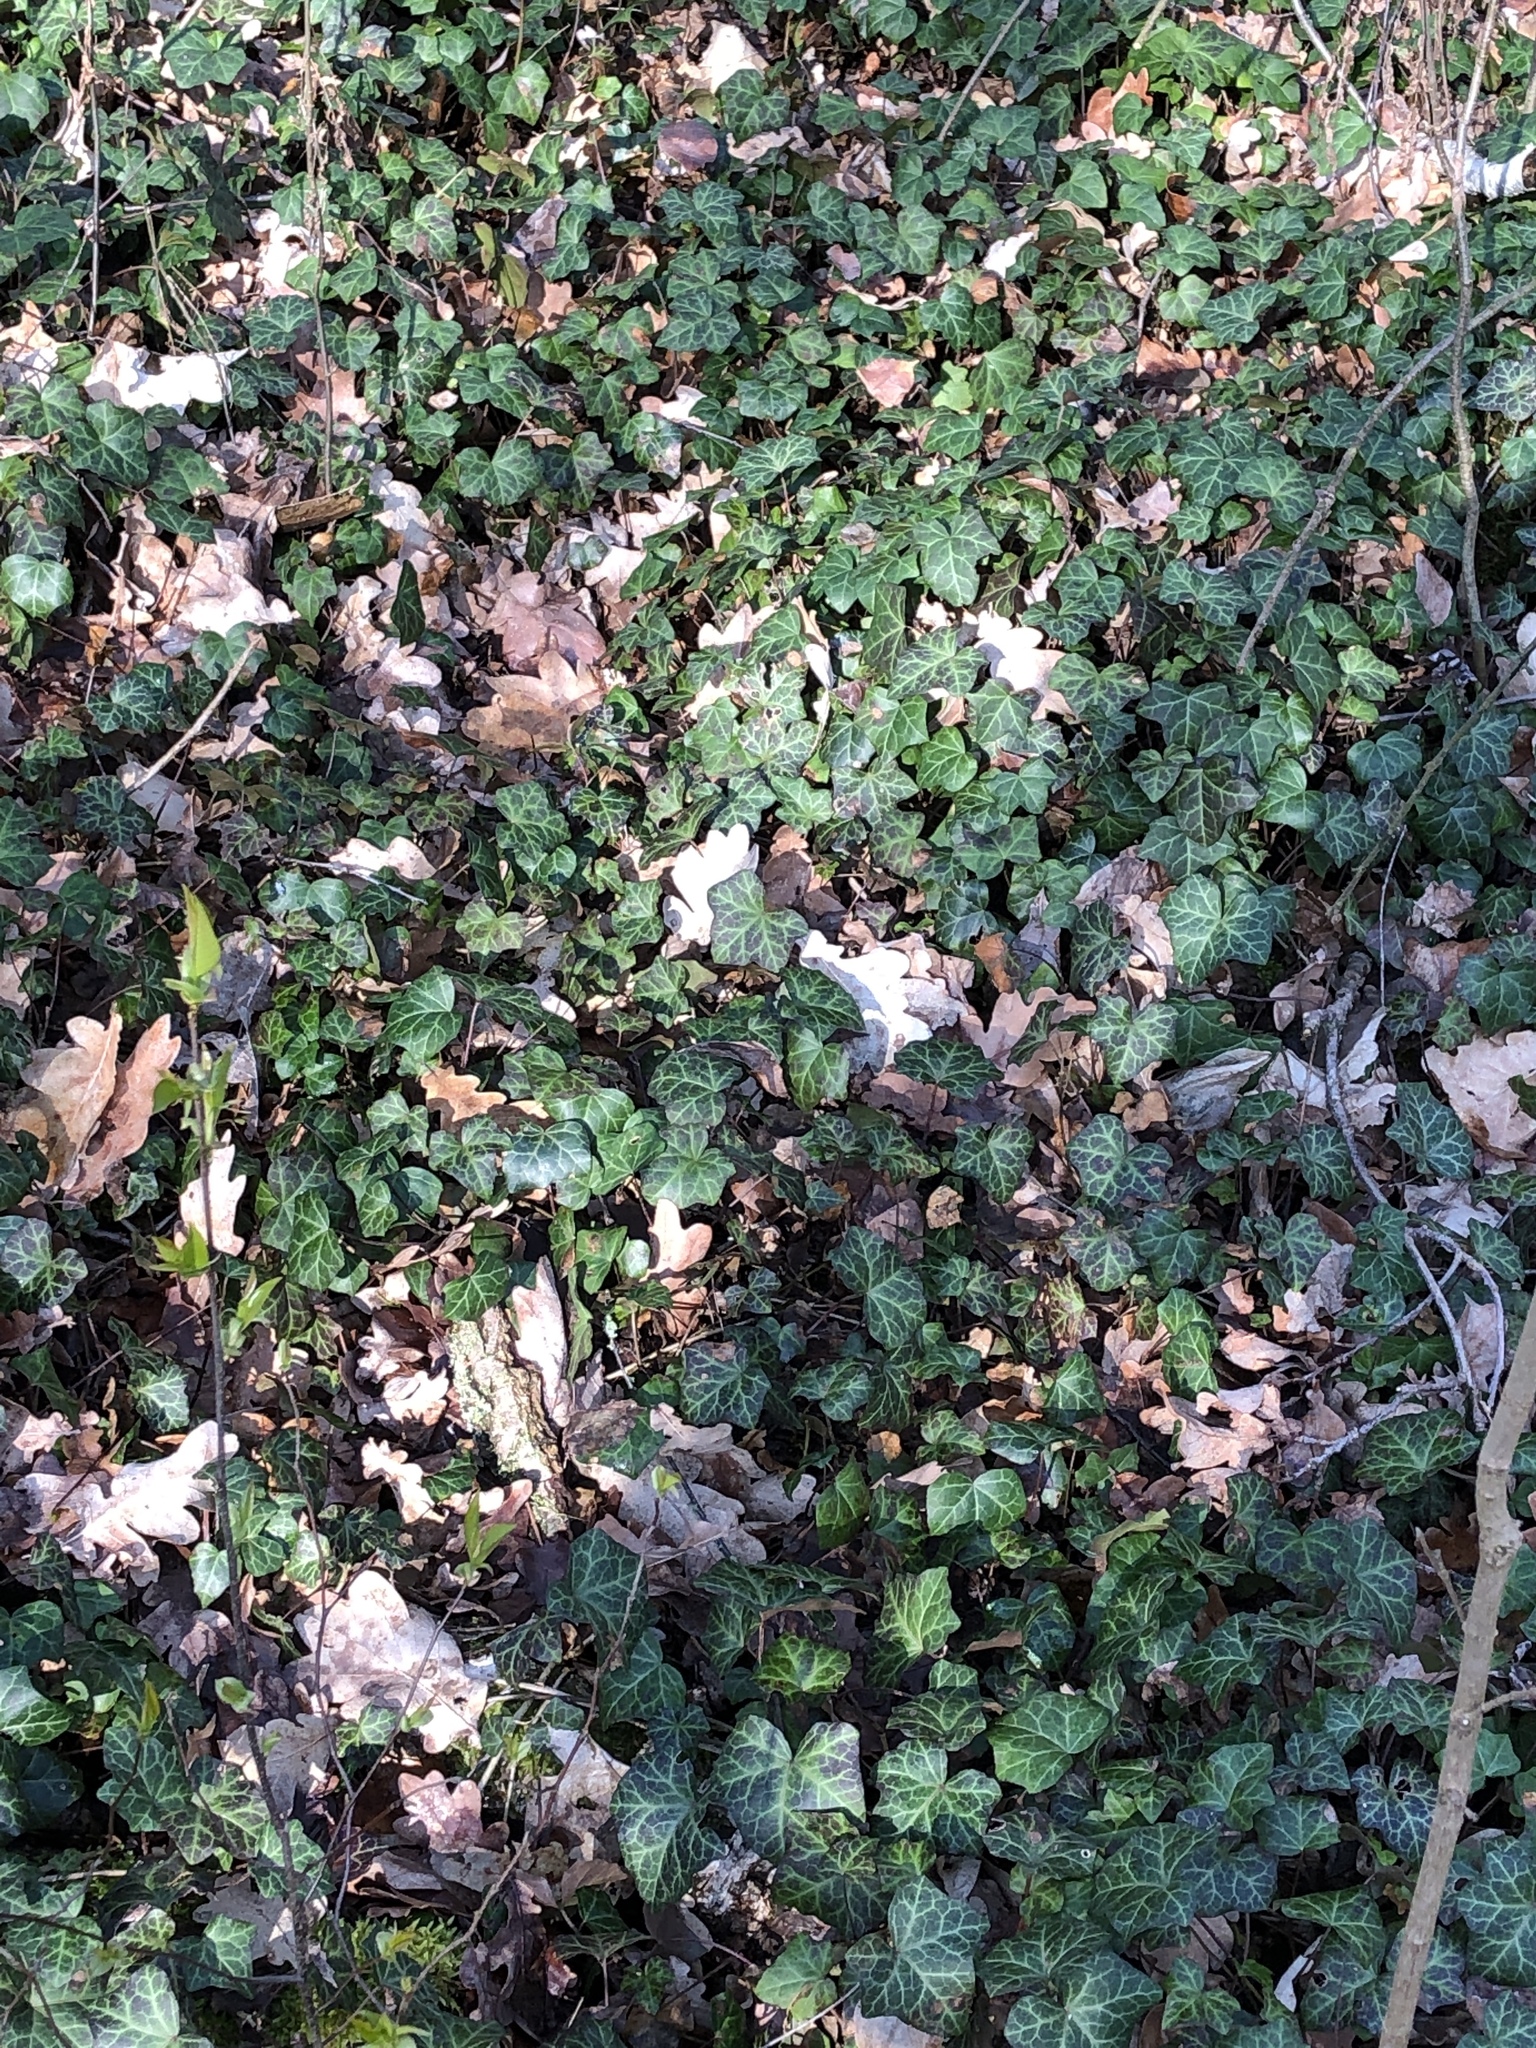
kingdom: Plantae
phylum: Tracheophyta
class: Magnoliopsida
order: Apiales
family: Araliaceae
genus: Hedera
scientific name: Hedera helix
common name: Ivy
